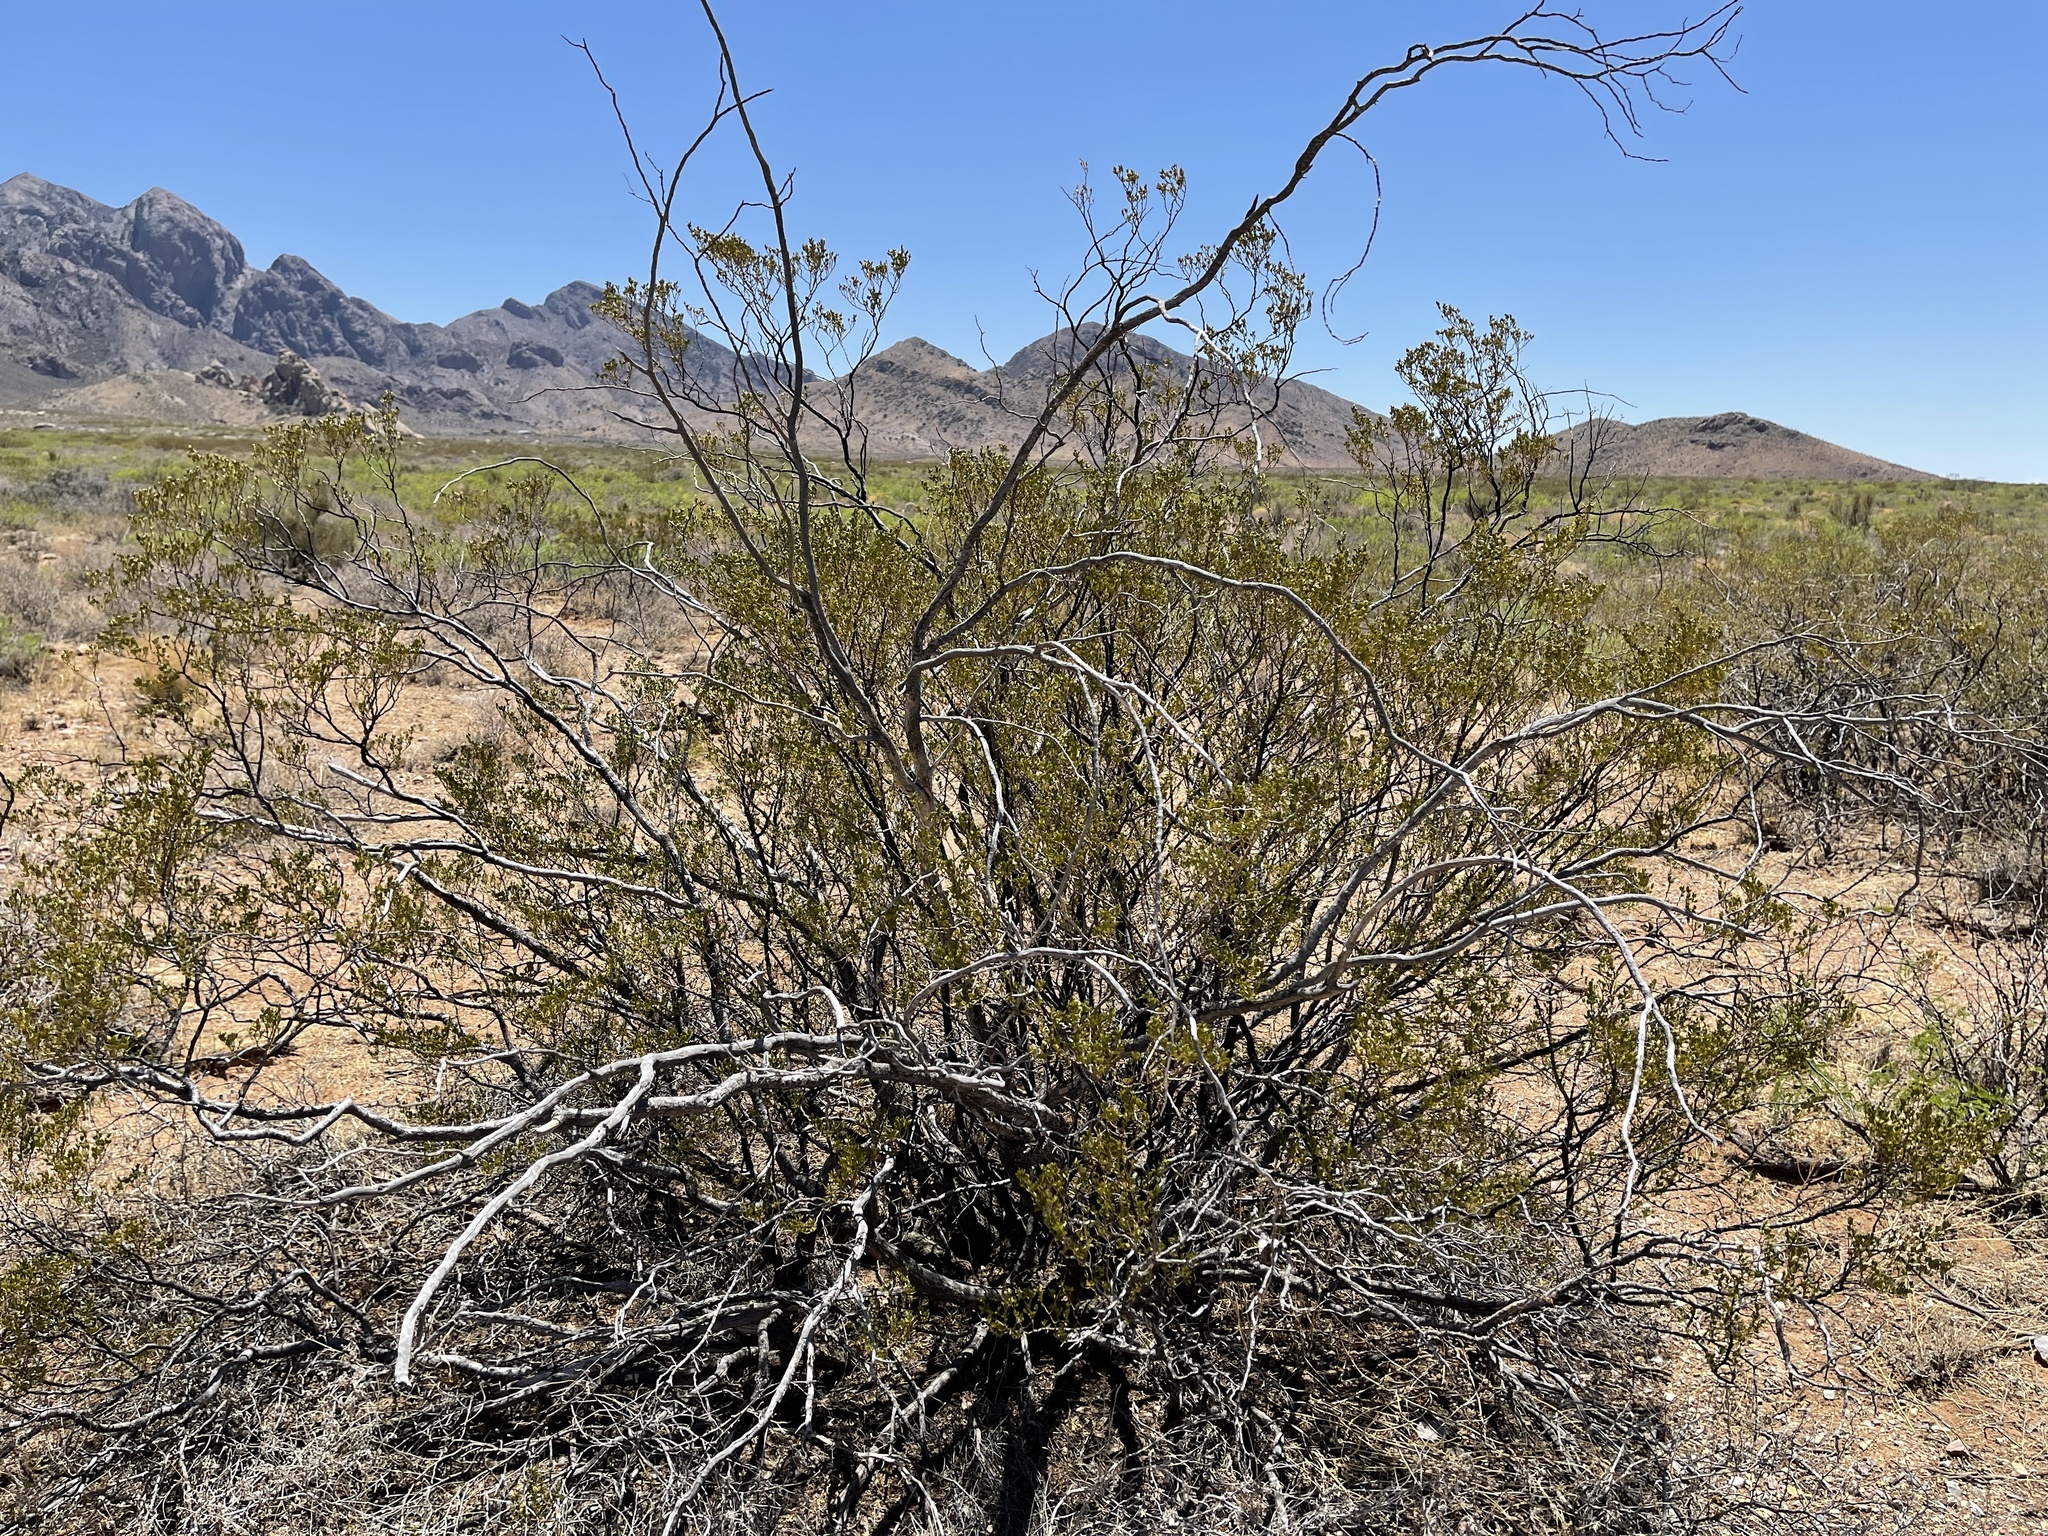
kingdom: Plantae
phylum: Tracheophyta
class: Magnoliopsida
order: Zygophyllales
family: Zygophyllaceae
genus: Larrea
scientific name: Larrea tridentata
